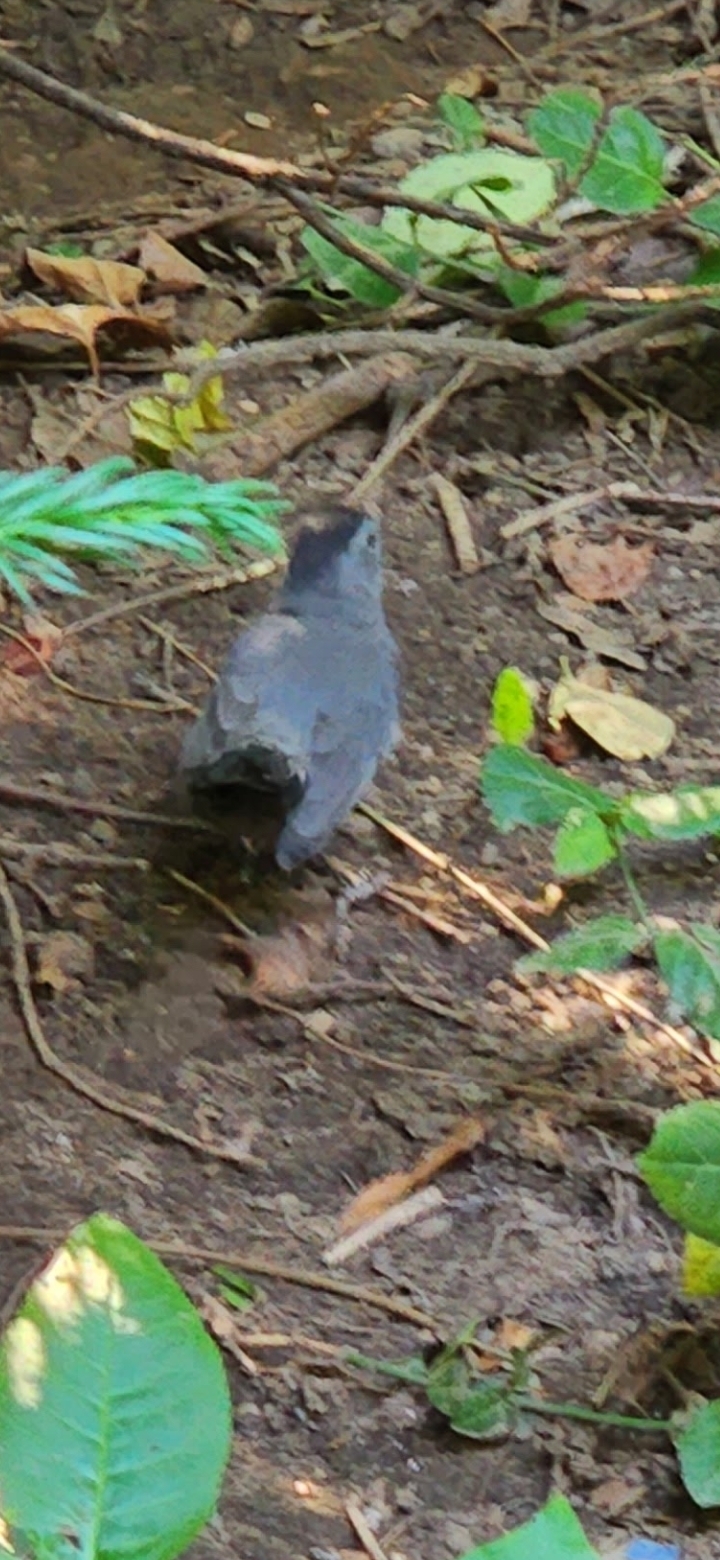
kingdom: Animalia
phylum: Chordata
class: Aves
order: Passeriformes
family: Mimidae
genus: Dumetella
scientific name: Dumetella carolinensis
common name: Gray catbird
